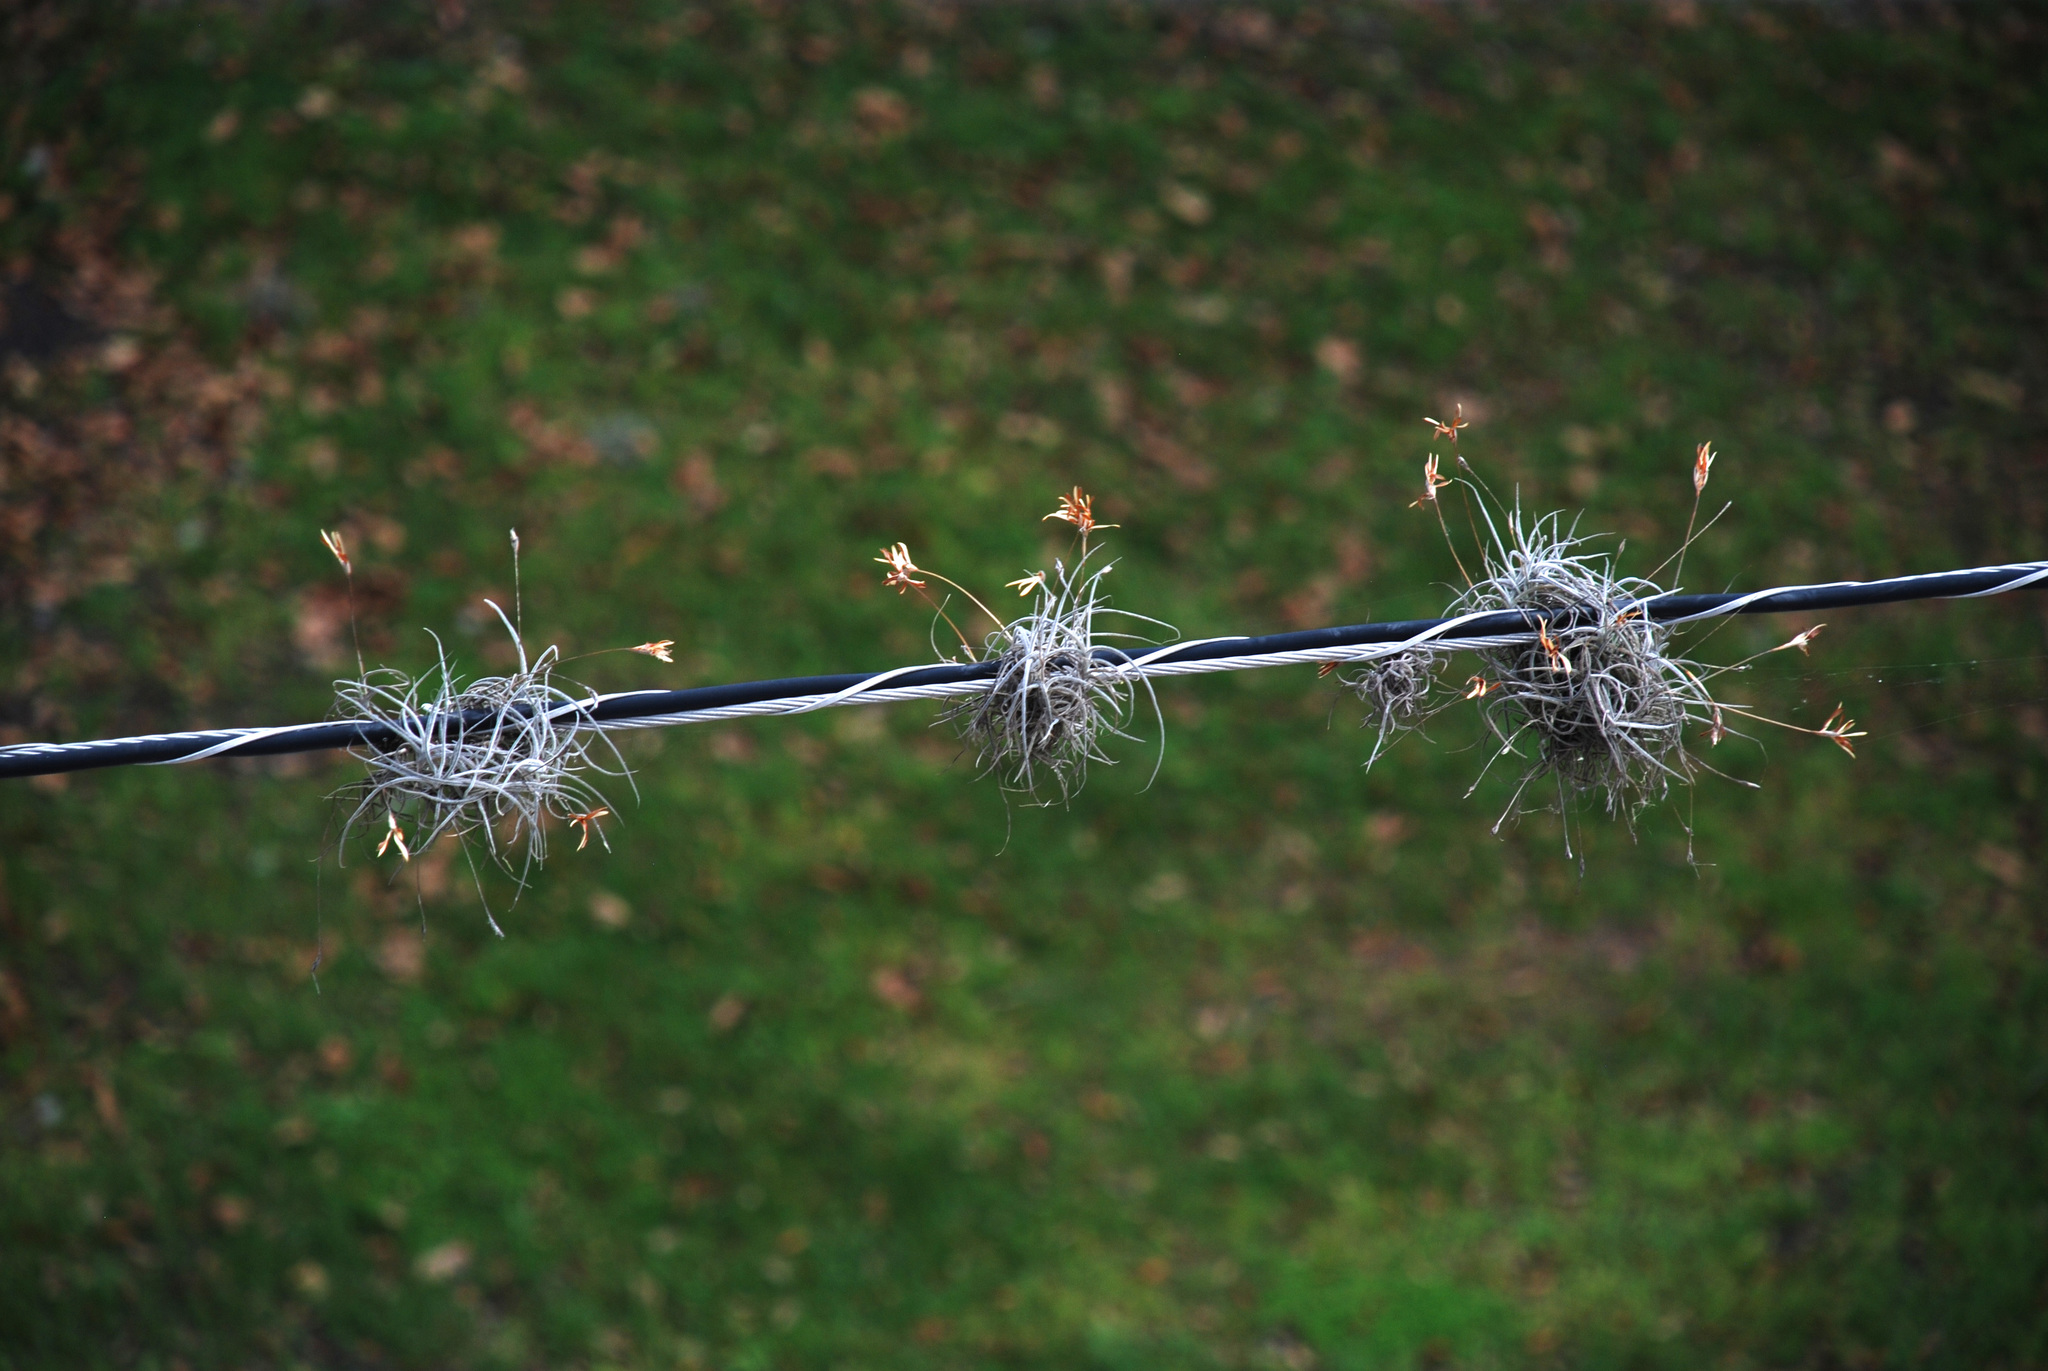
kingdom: Plantae
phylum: Tracheophyta
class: Liliopsida
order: Poales
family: Bromeliaceae
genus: Tillandsia
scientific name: Tillandsia recurvata
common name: Small ballmoss
